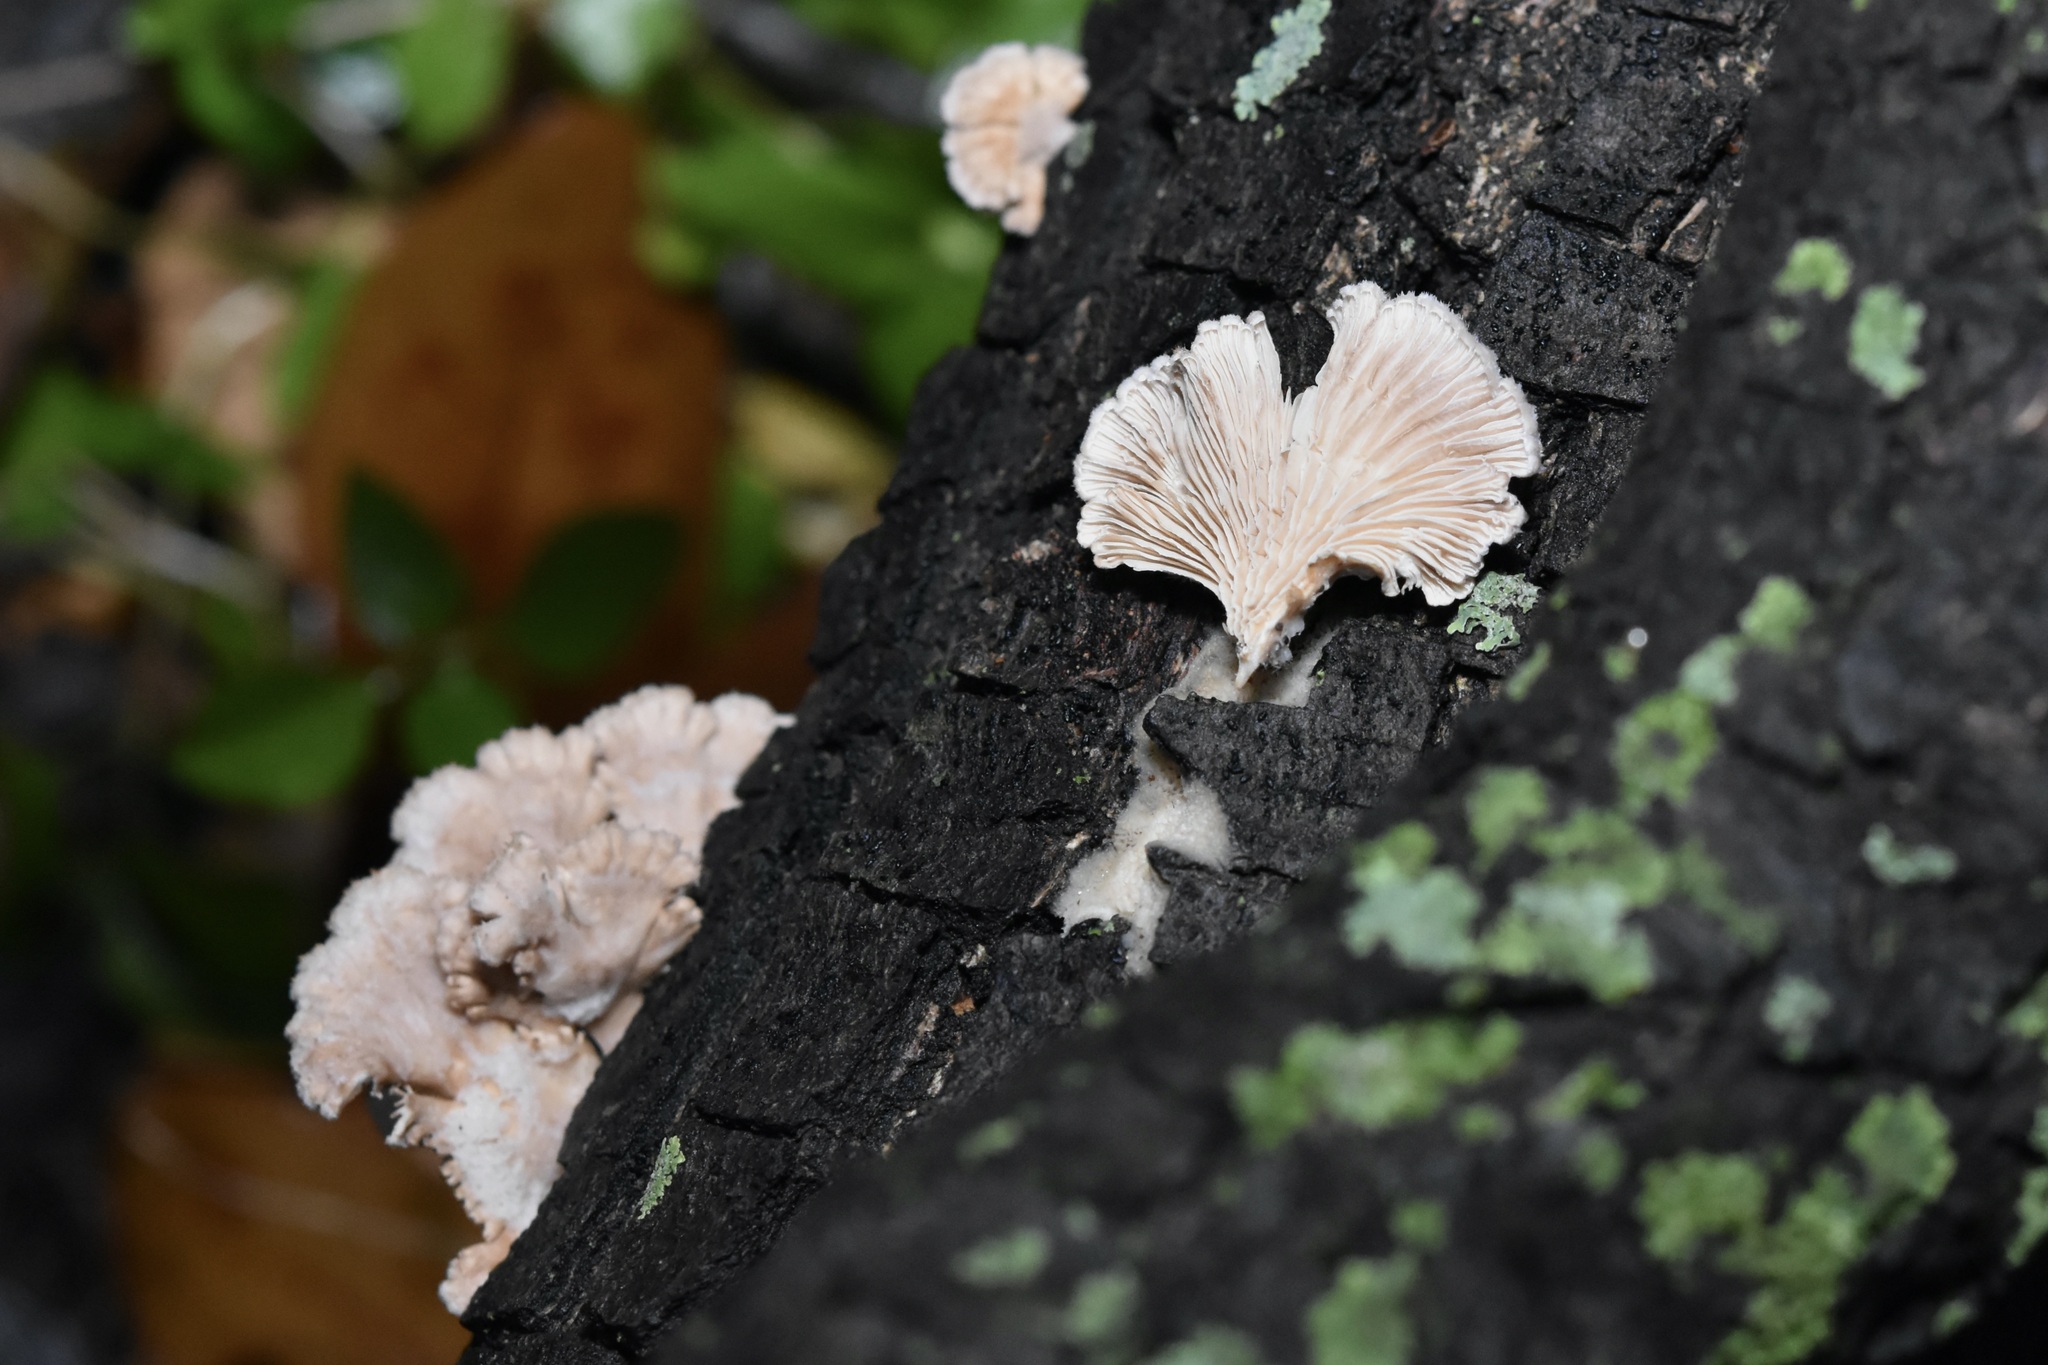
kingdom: Fungi
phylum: Basidiomycota
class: Agaricomycetes
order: Agaricales
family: Schizophyllaceae
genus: Schizophyllum
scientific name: Schizophyllum commune
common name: Common porecrust
